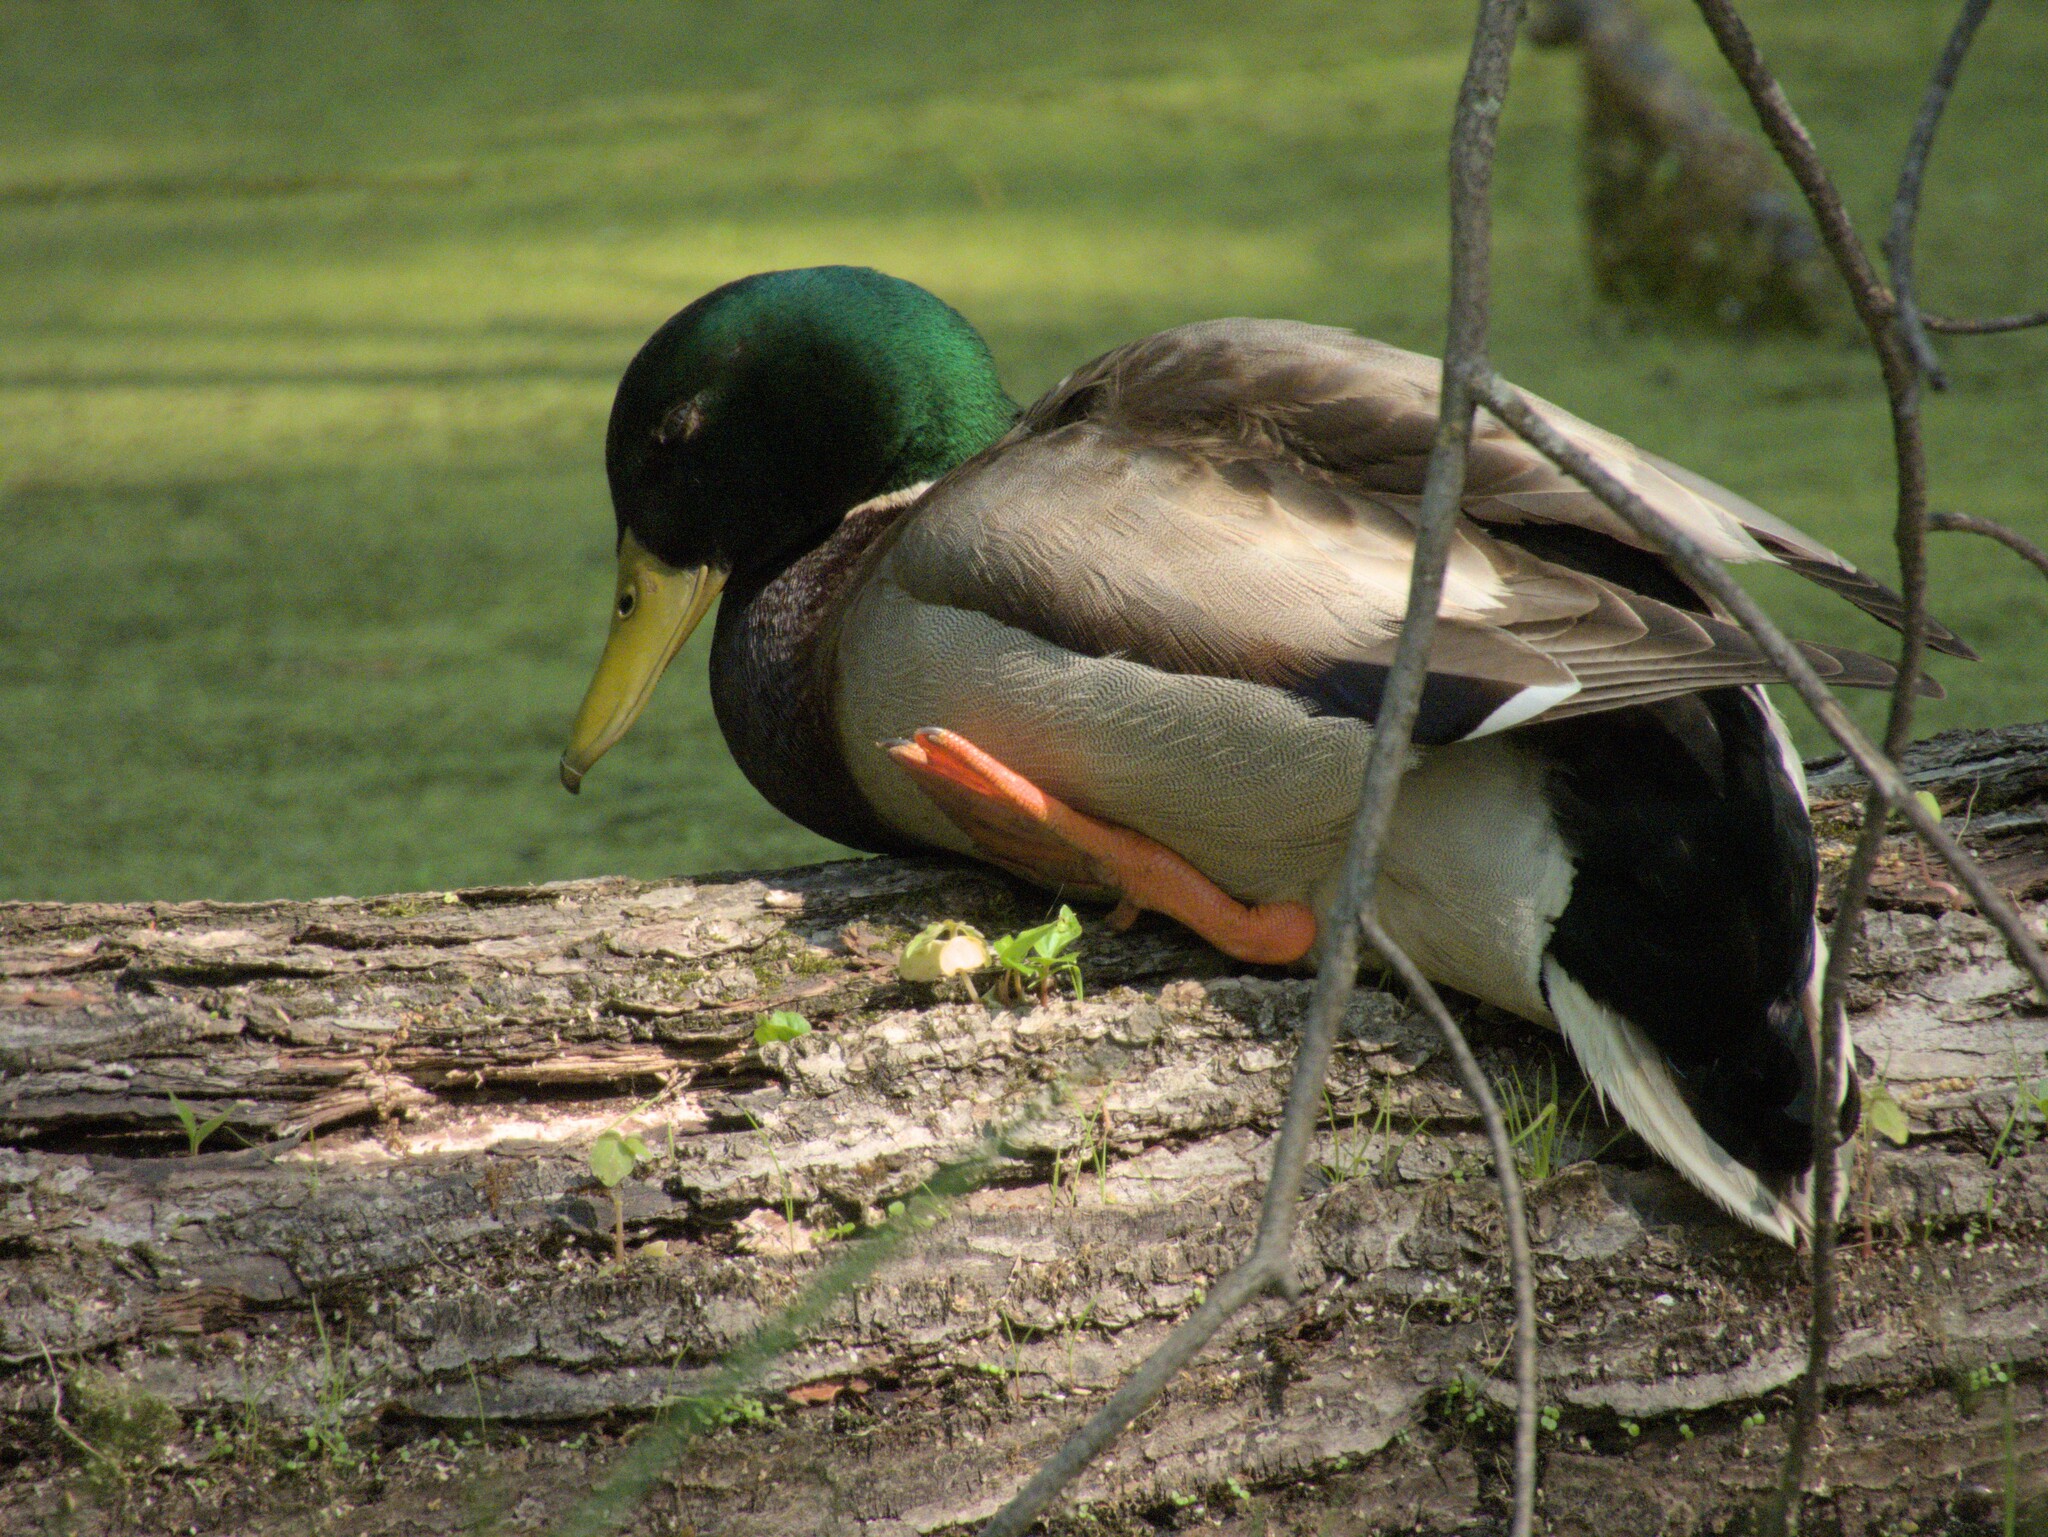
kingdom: Animalia
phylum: Chordata
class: Aves
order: Anseriformes
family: Anatidae
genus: Anas
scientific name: Anas platyrhynchos
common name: Mallard
